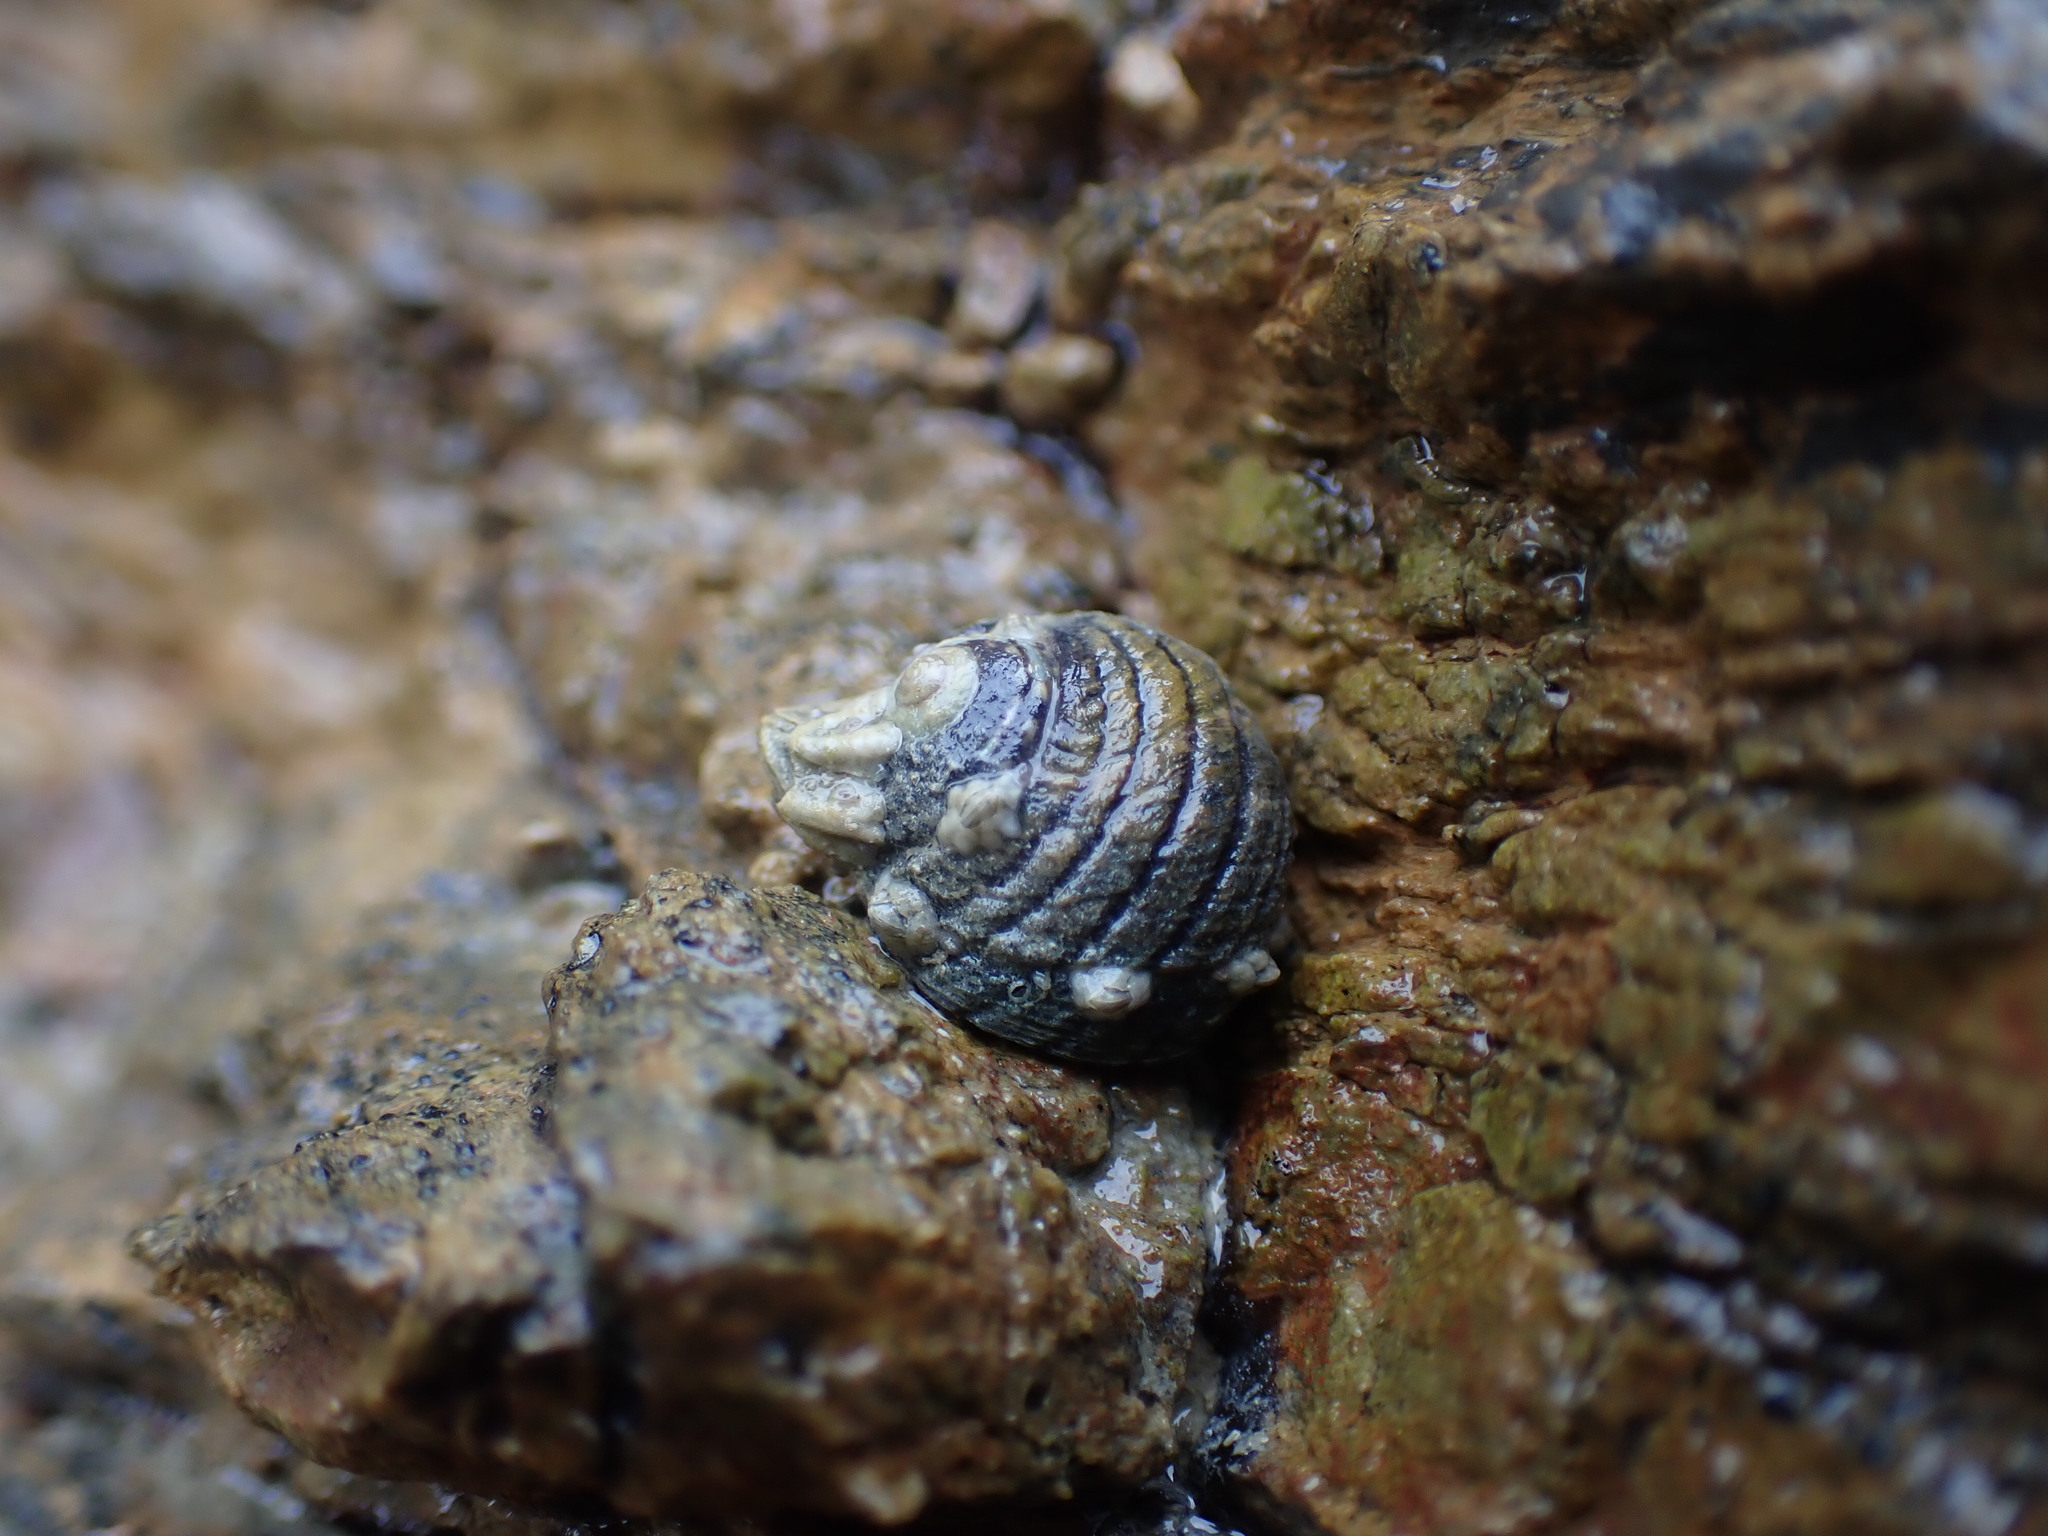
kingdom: Animalia
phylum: Mollusca
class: Gastropoda
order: Trochida
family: Trochidae
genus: Diloma
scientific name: Diloma aethiops
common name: Scorched monodont
